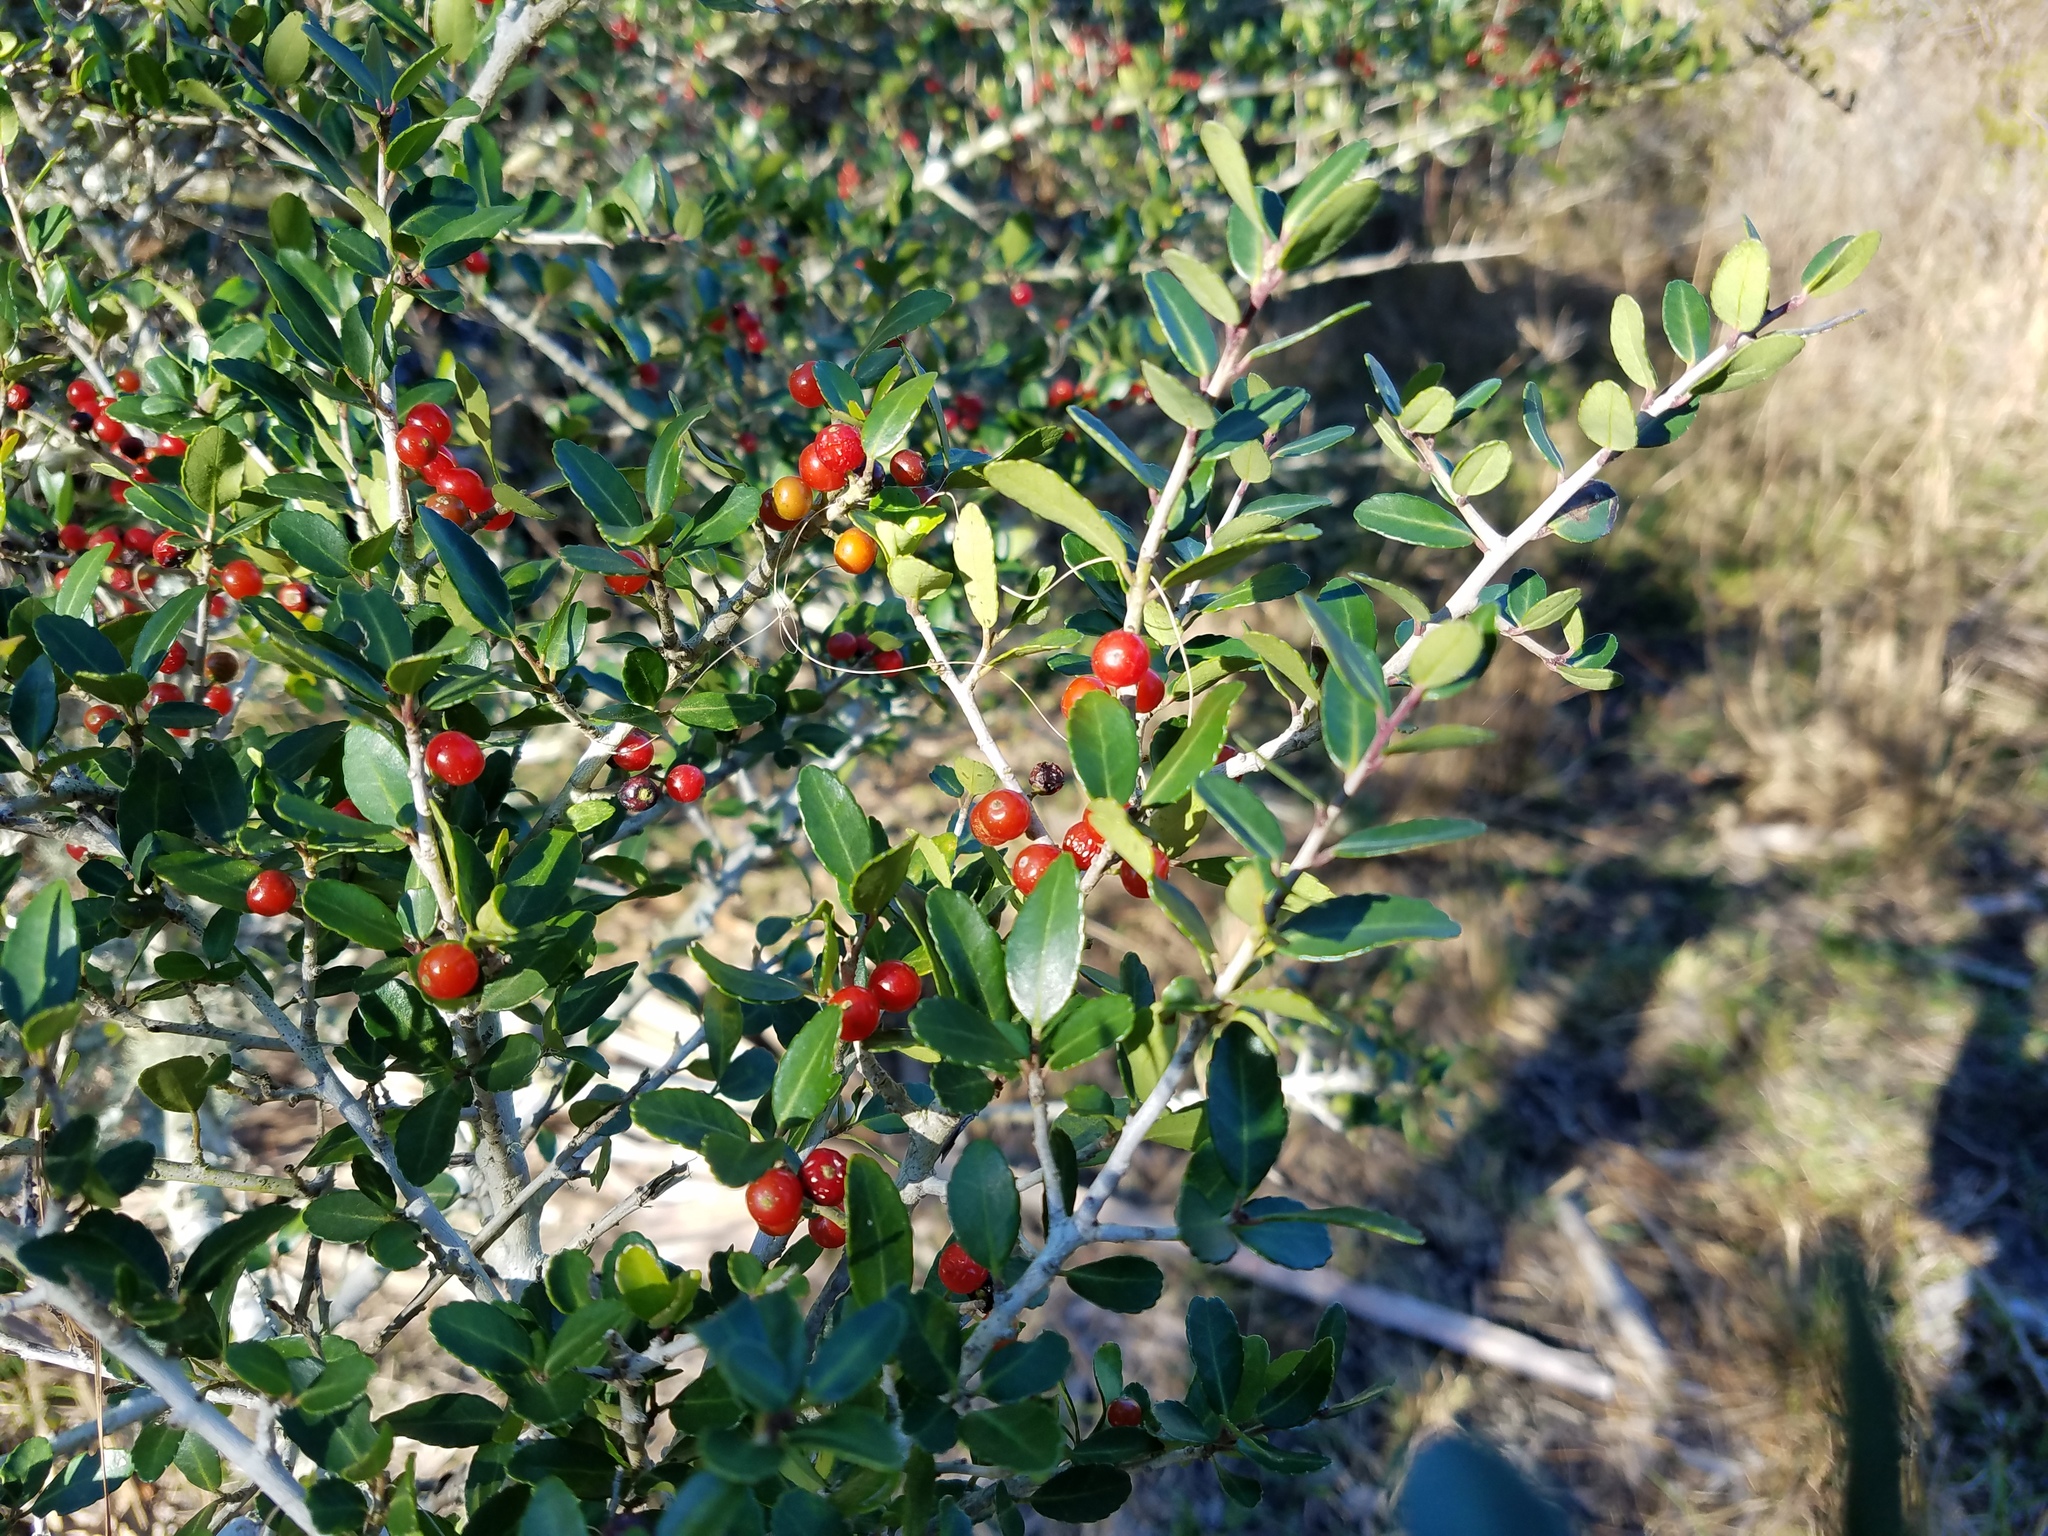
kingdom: Plantae
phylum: Tracheophyta
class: Magnoliopsida
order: Aquifoliales
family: Aquifoliaceae
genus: Ilex
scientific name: Ilex vomitoria
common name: Yaupon holly
